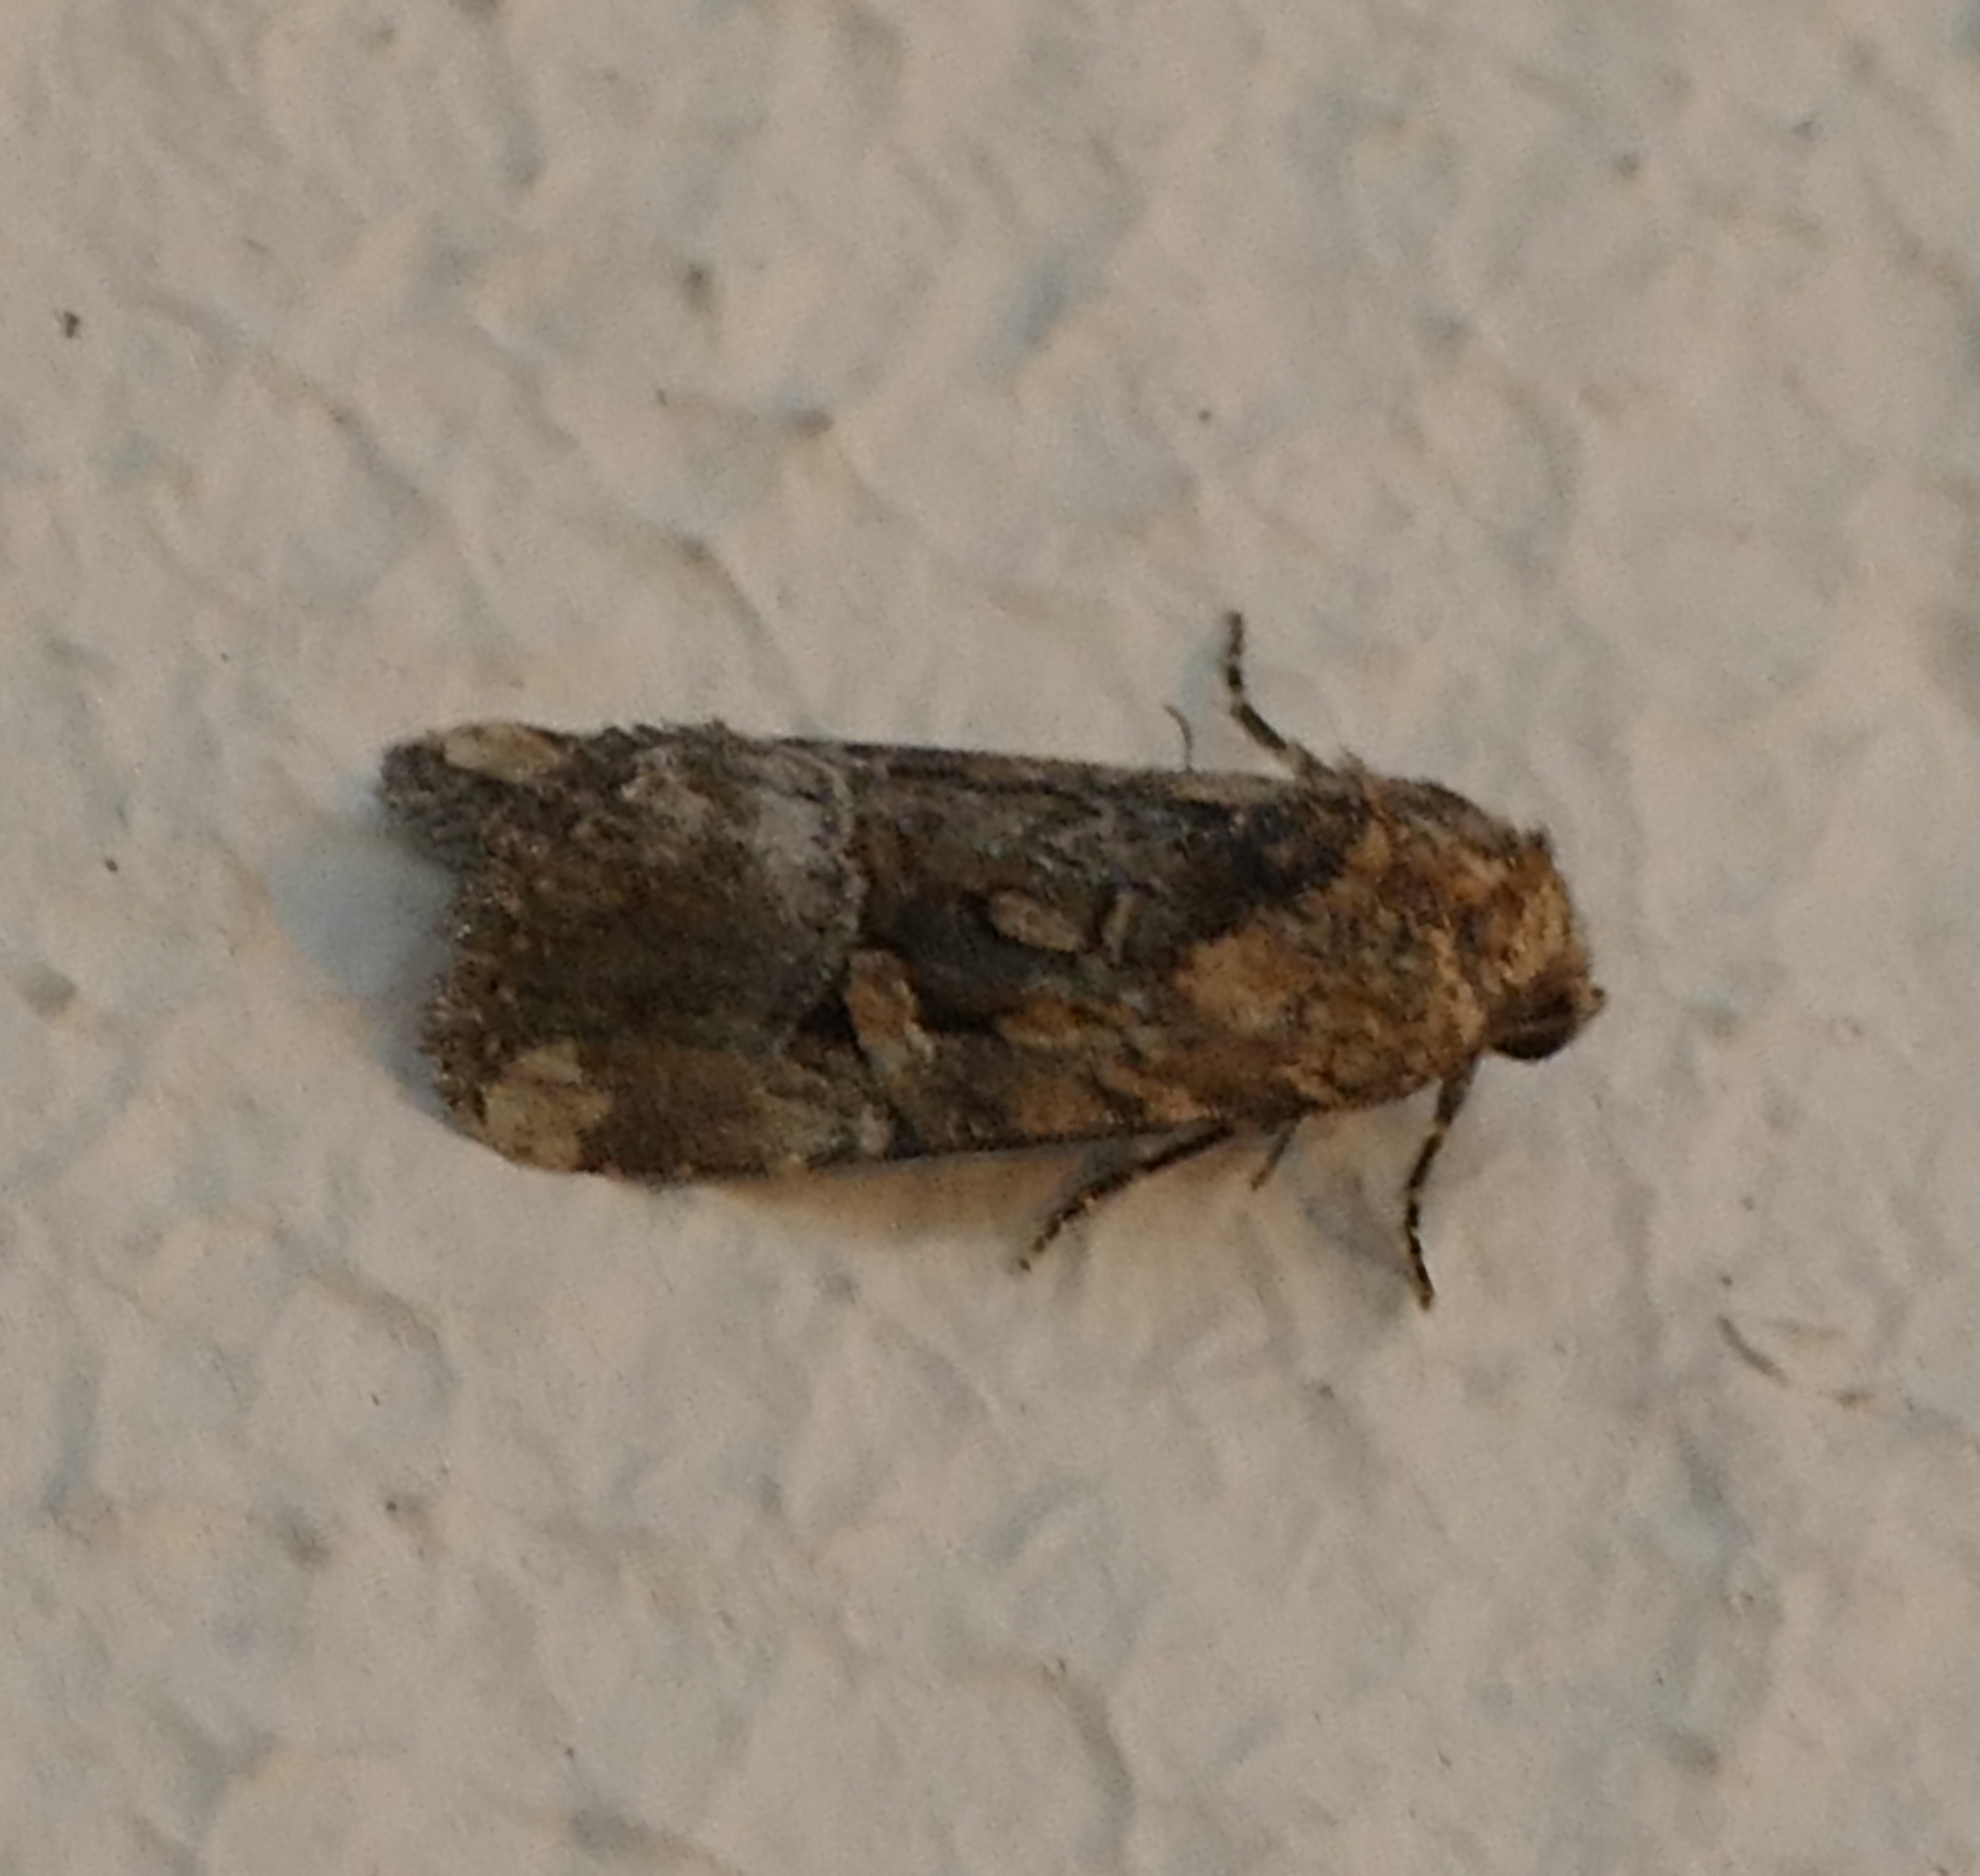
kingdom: Animalia
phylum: Arthropoda
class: Insecta
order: Lepidoptera
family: Noctuidae
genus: Elaphria
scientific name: Elaphria chalcedonia
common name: Chalcedony midget
